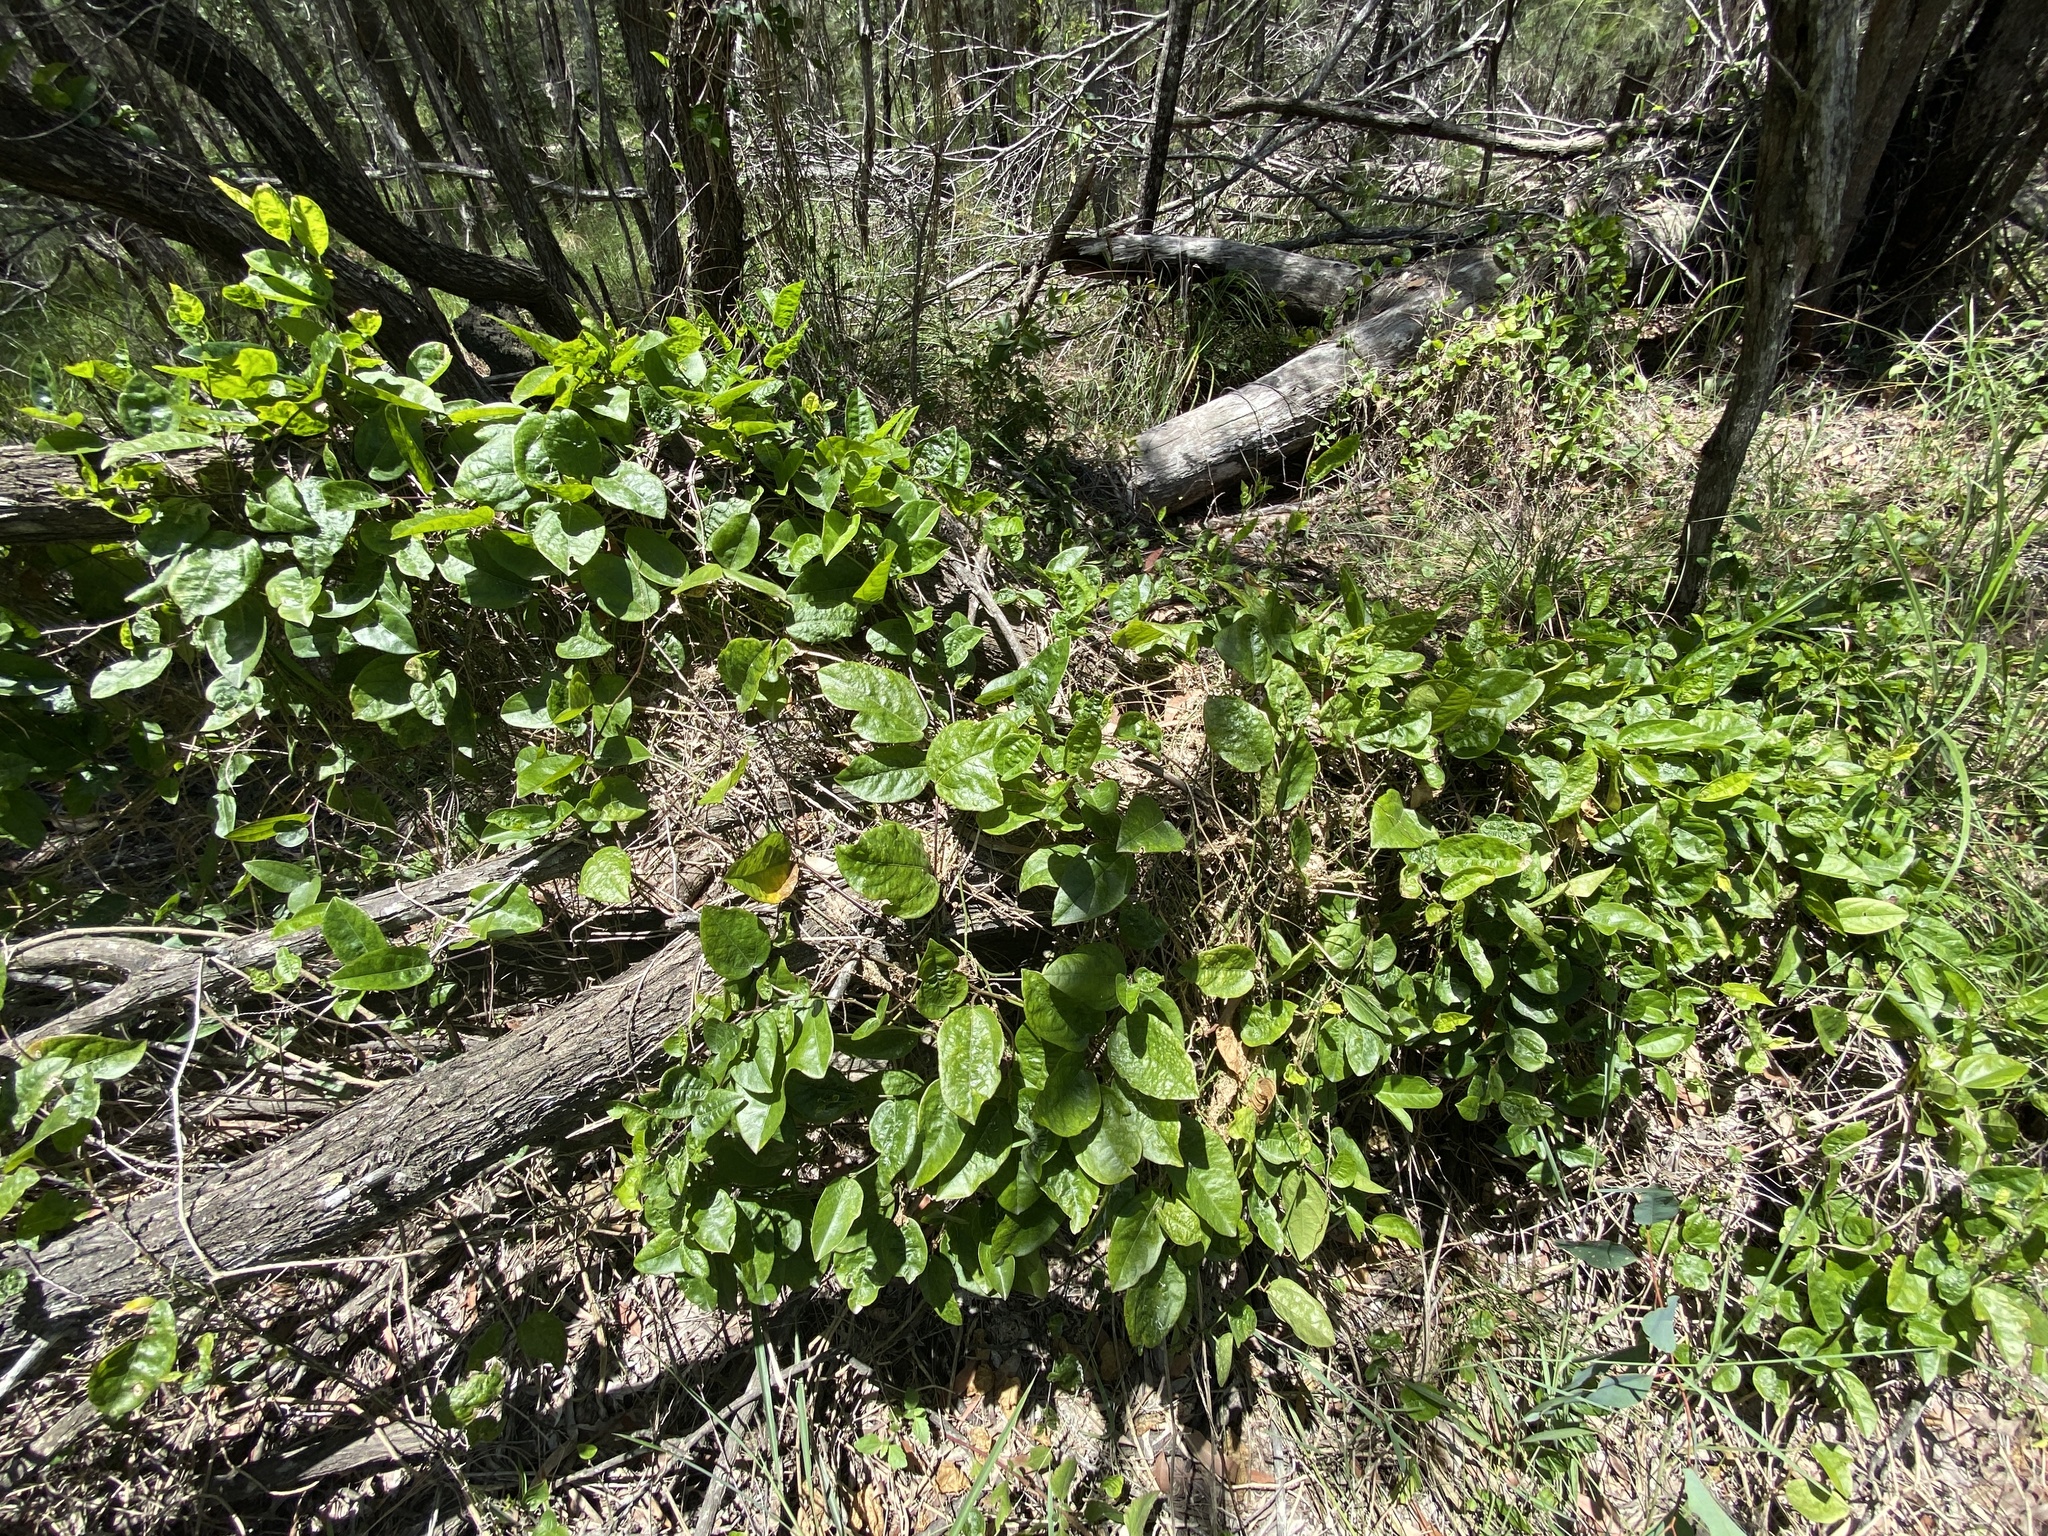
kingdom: Plantae
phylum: Tracheophyta
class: Magnoliopsida
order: Malpighiales
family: Passifloraceae
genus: Passiflora
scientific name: Passiflora pallida
